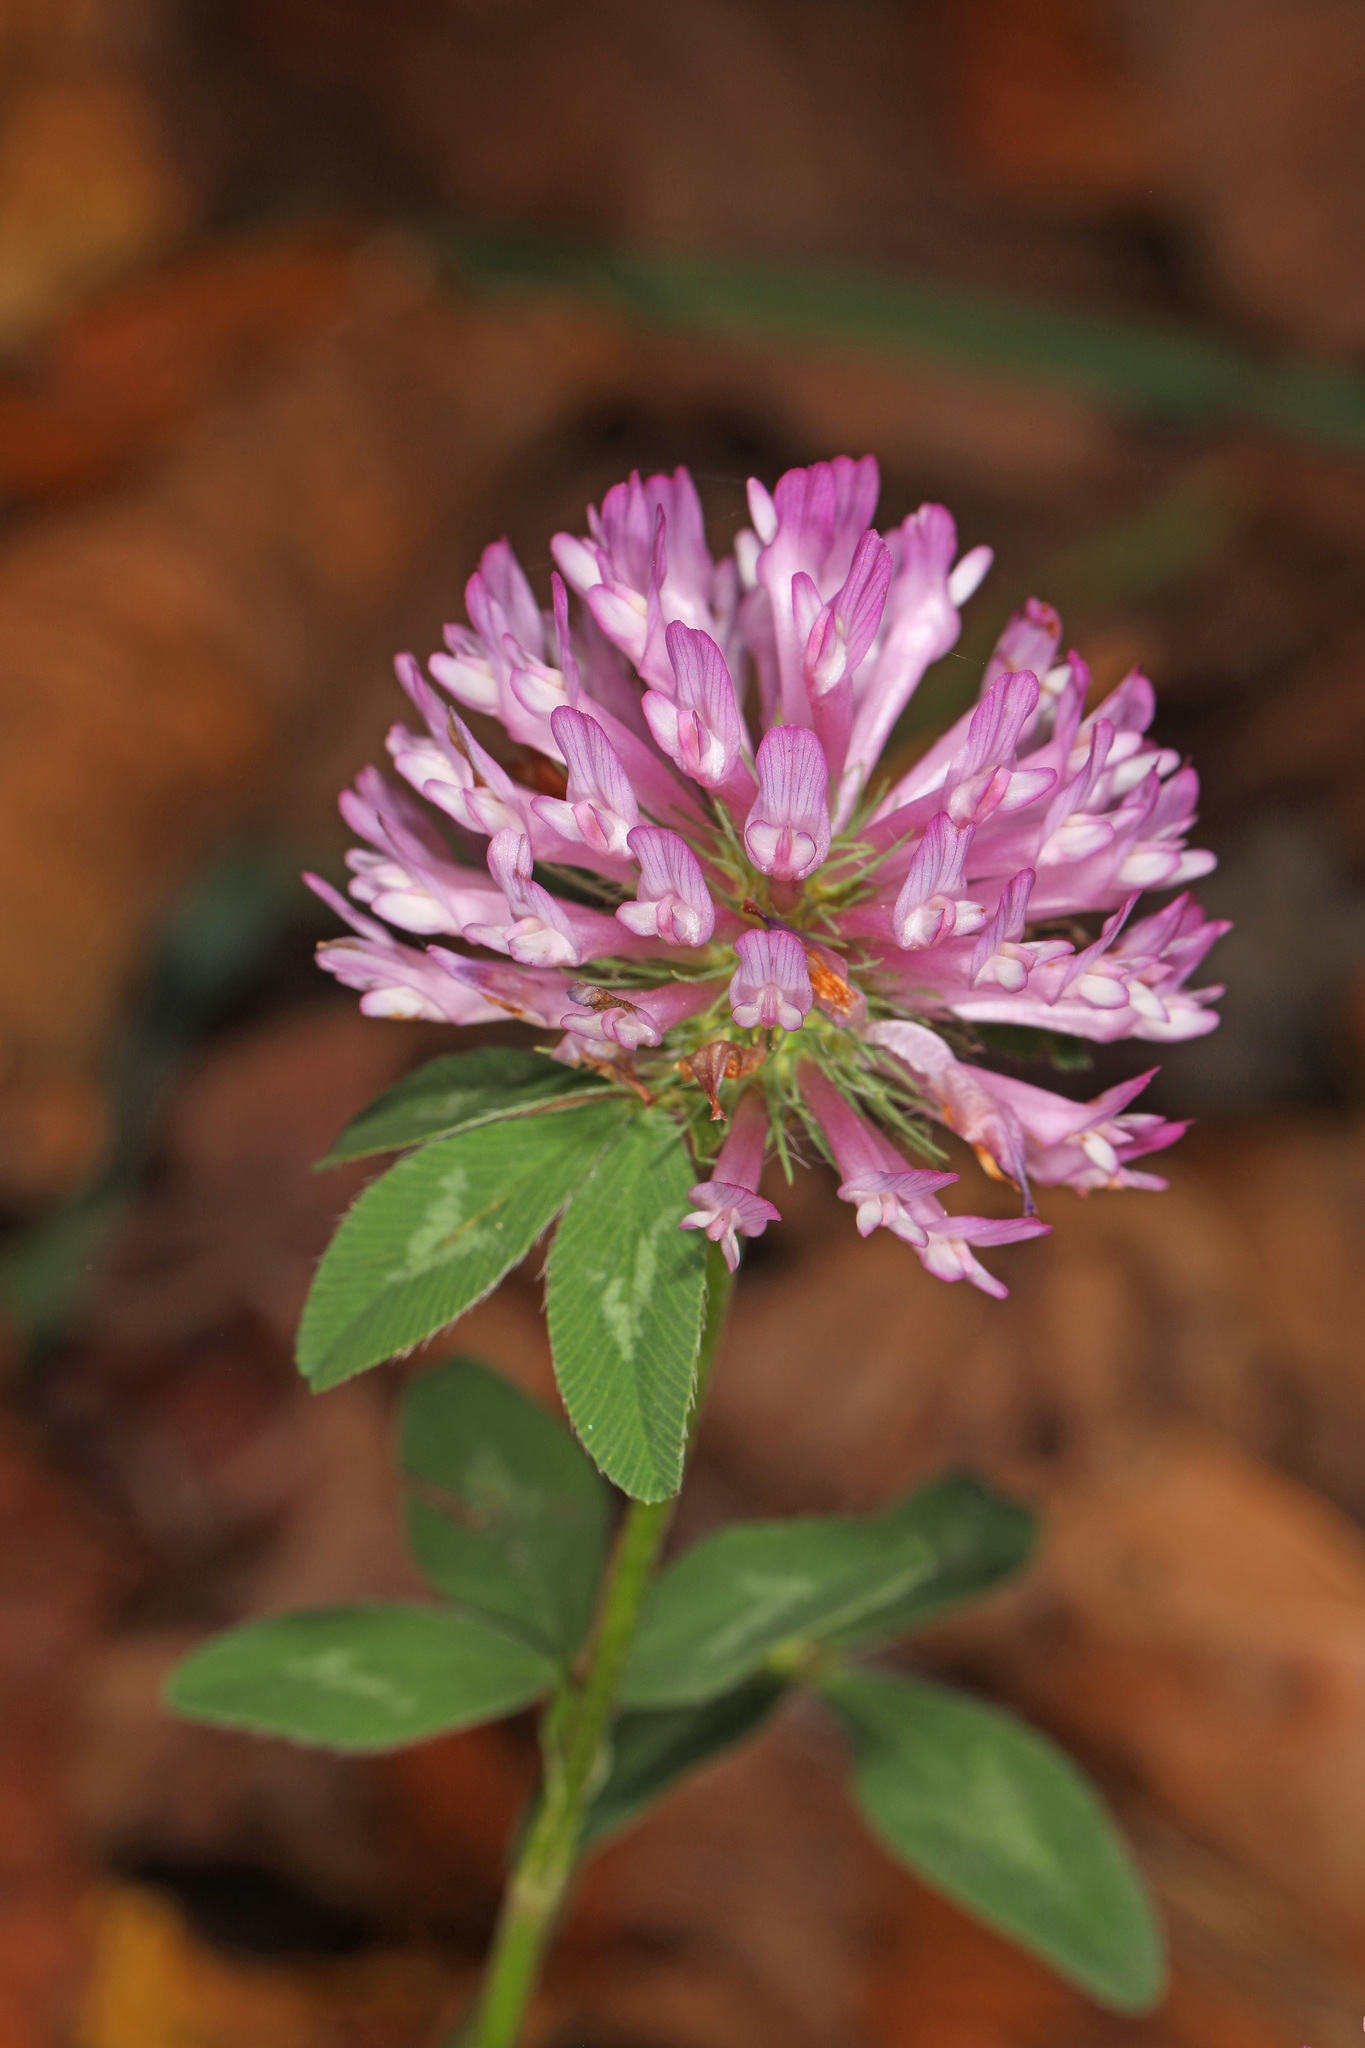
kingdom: Plantae
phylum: Tracheophyta
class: Magnoliopsida
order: Fabales
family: Fabaceae
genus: Trifolium
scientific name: Trifolium pratense
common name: Red clover
